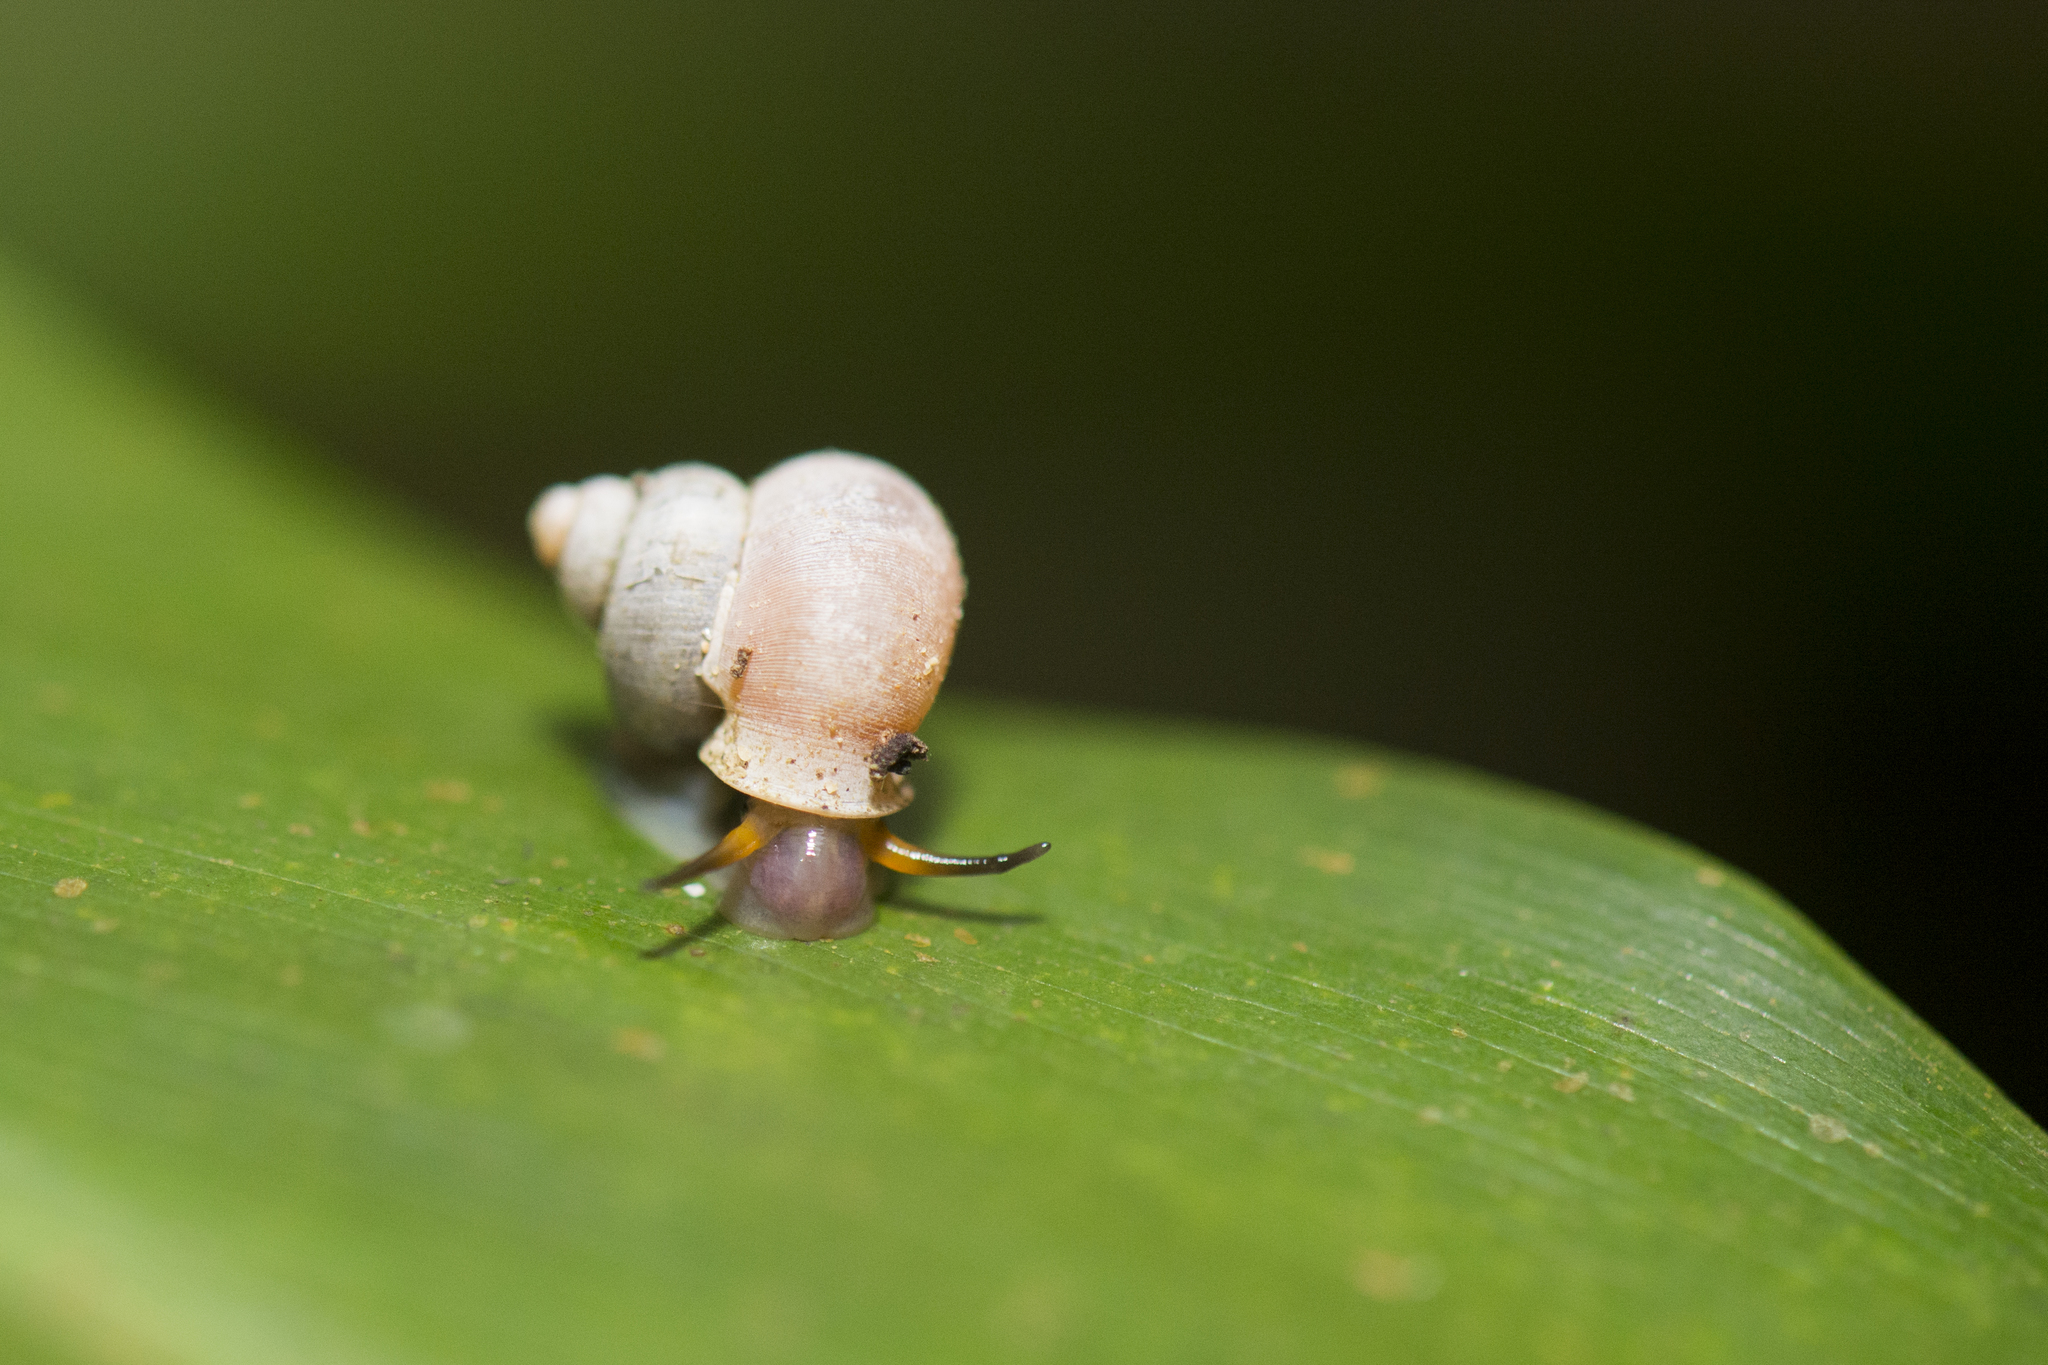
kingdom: Animalia
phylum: Mollusca
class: Gastropoda
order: Architaenioglossa
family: Alycaeidae
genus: Dioryx
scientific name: Dioryx swinhoei
